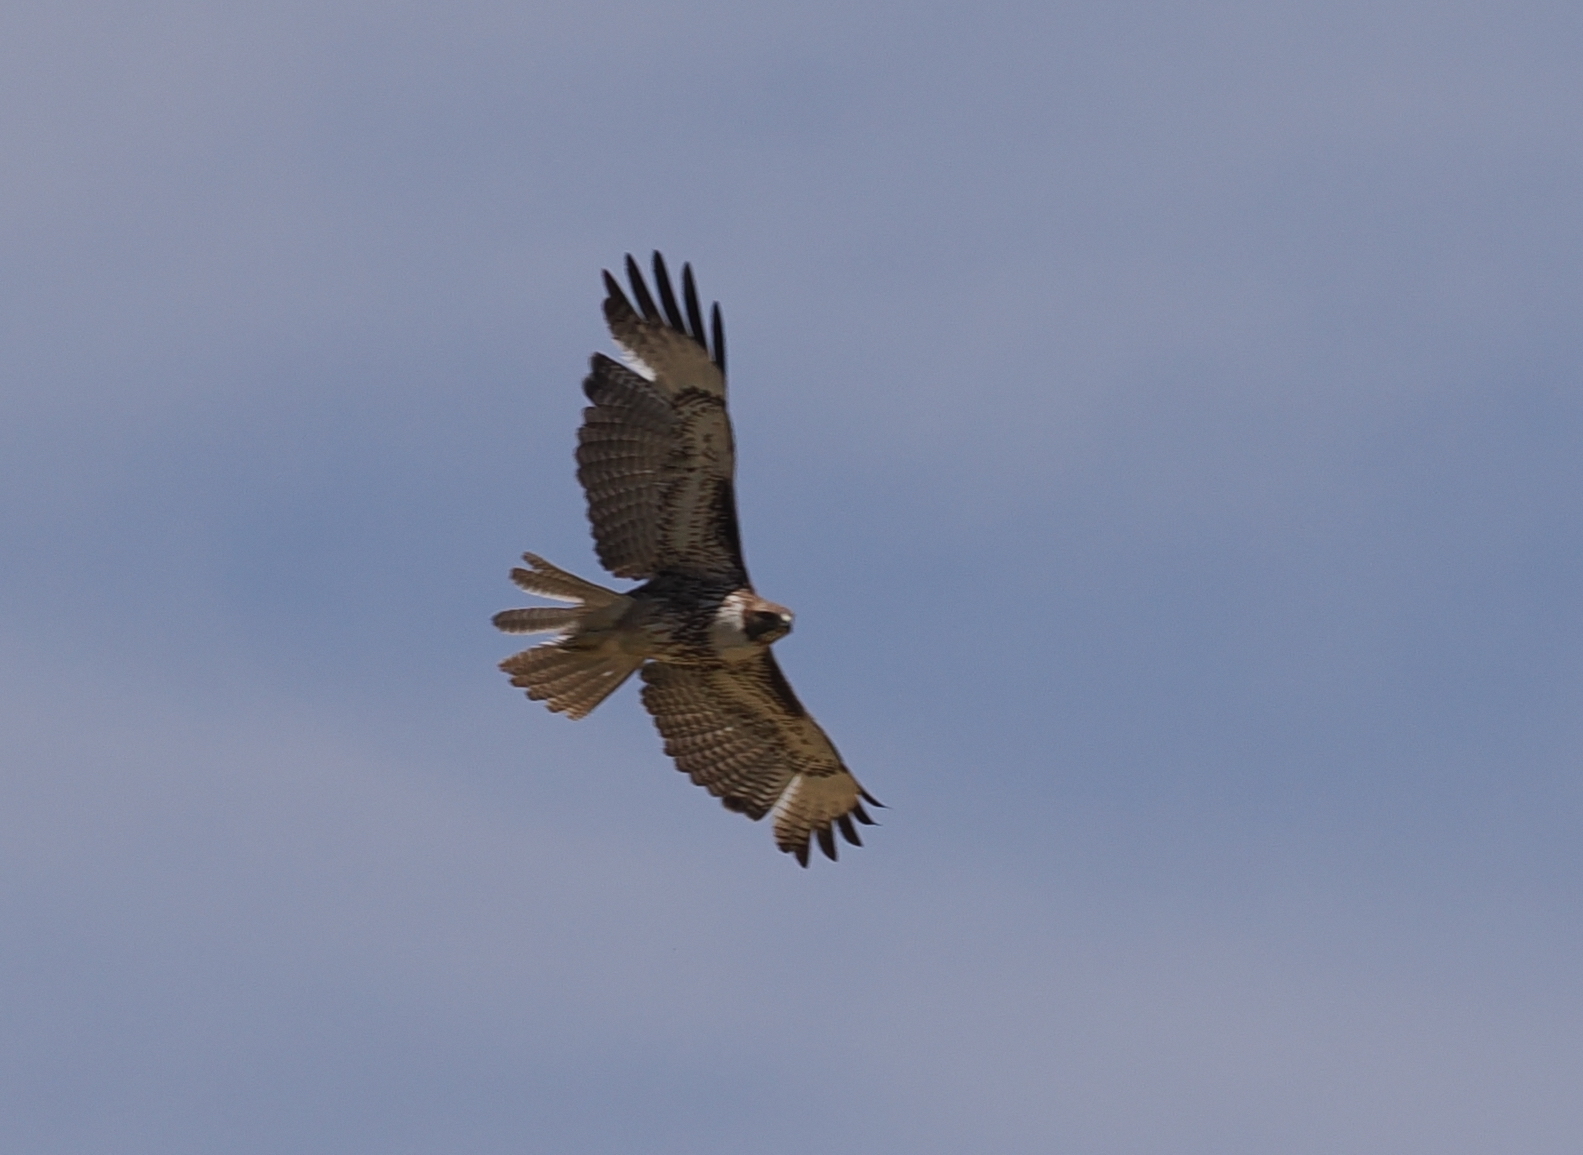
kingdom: Animalia
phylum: Chordata
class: Aves
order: Accipitriformes
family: Accipitridae
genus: Buteo
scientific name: Buteo jamaicensis
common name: Red-tailed hawk
